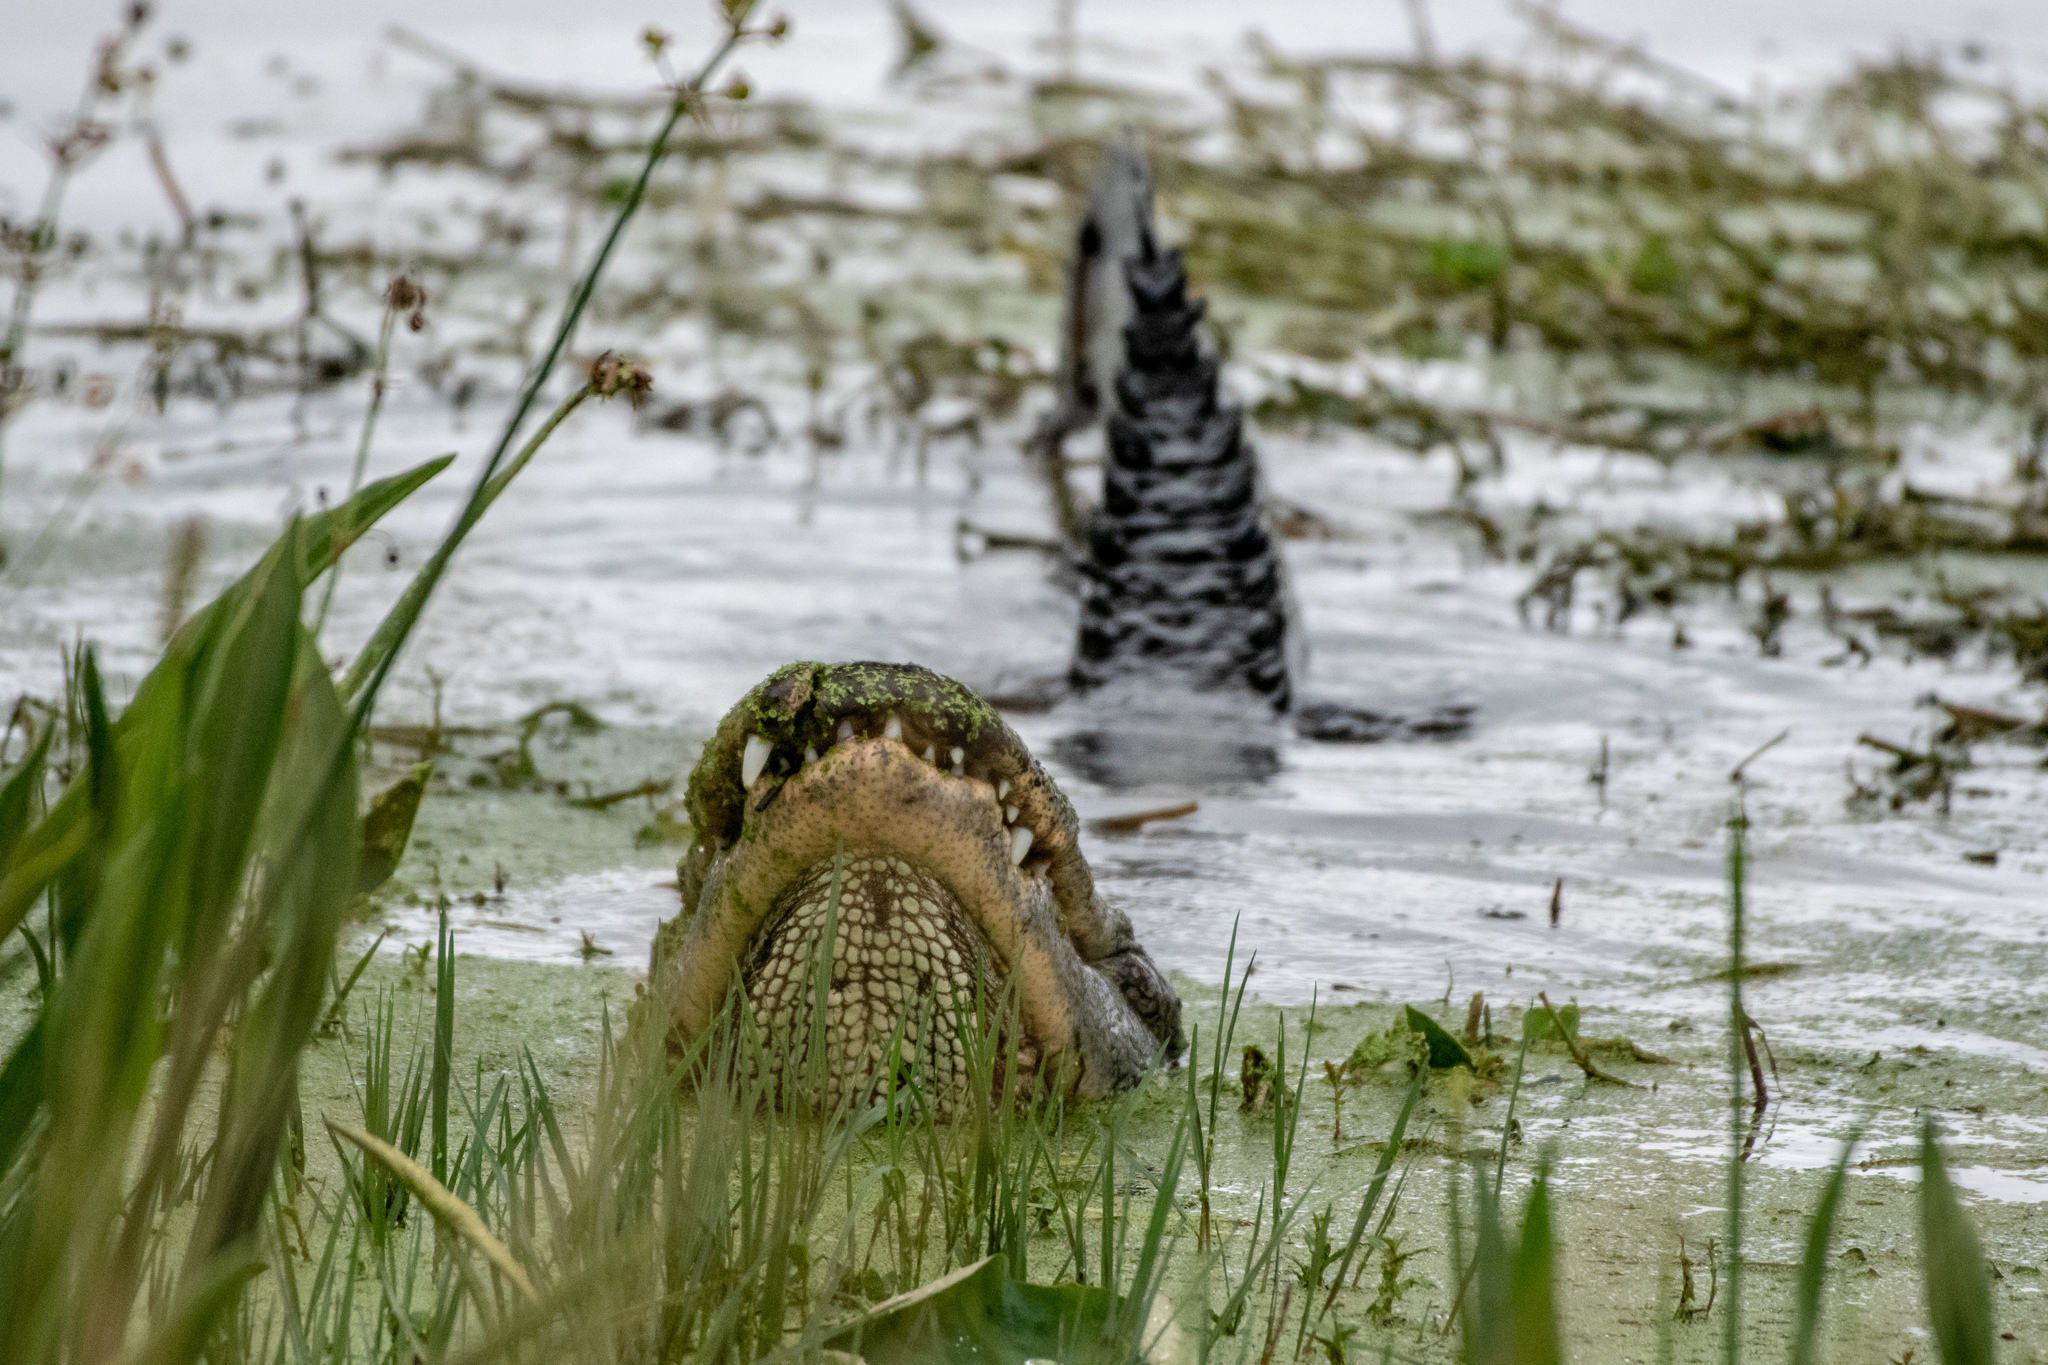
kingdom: Animalia
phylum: Chordata
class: Crocodylia
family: Alligatoridae
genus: Alligator
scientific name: Alligator mississippiensis
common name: American alligator
